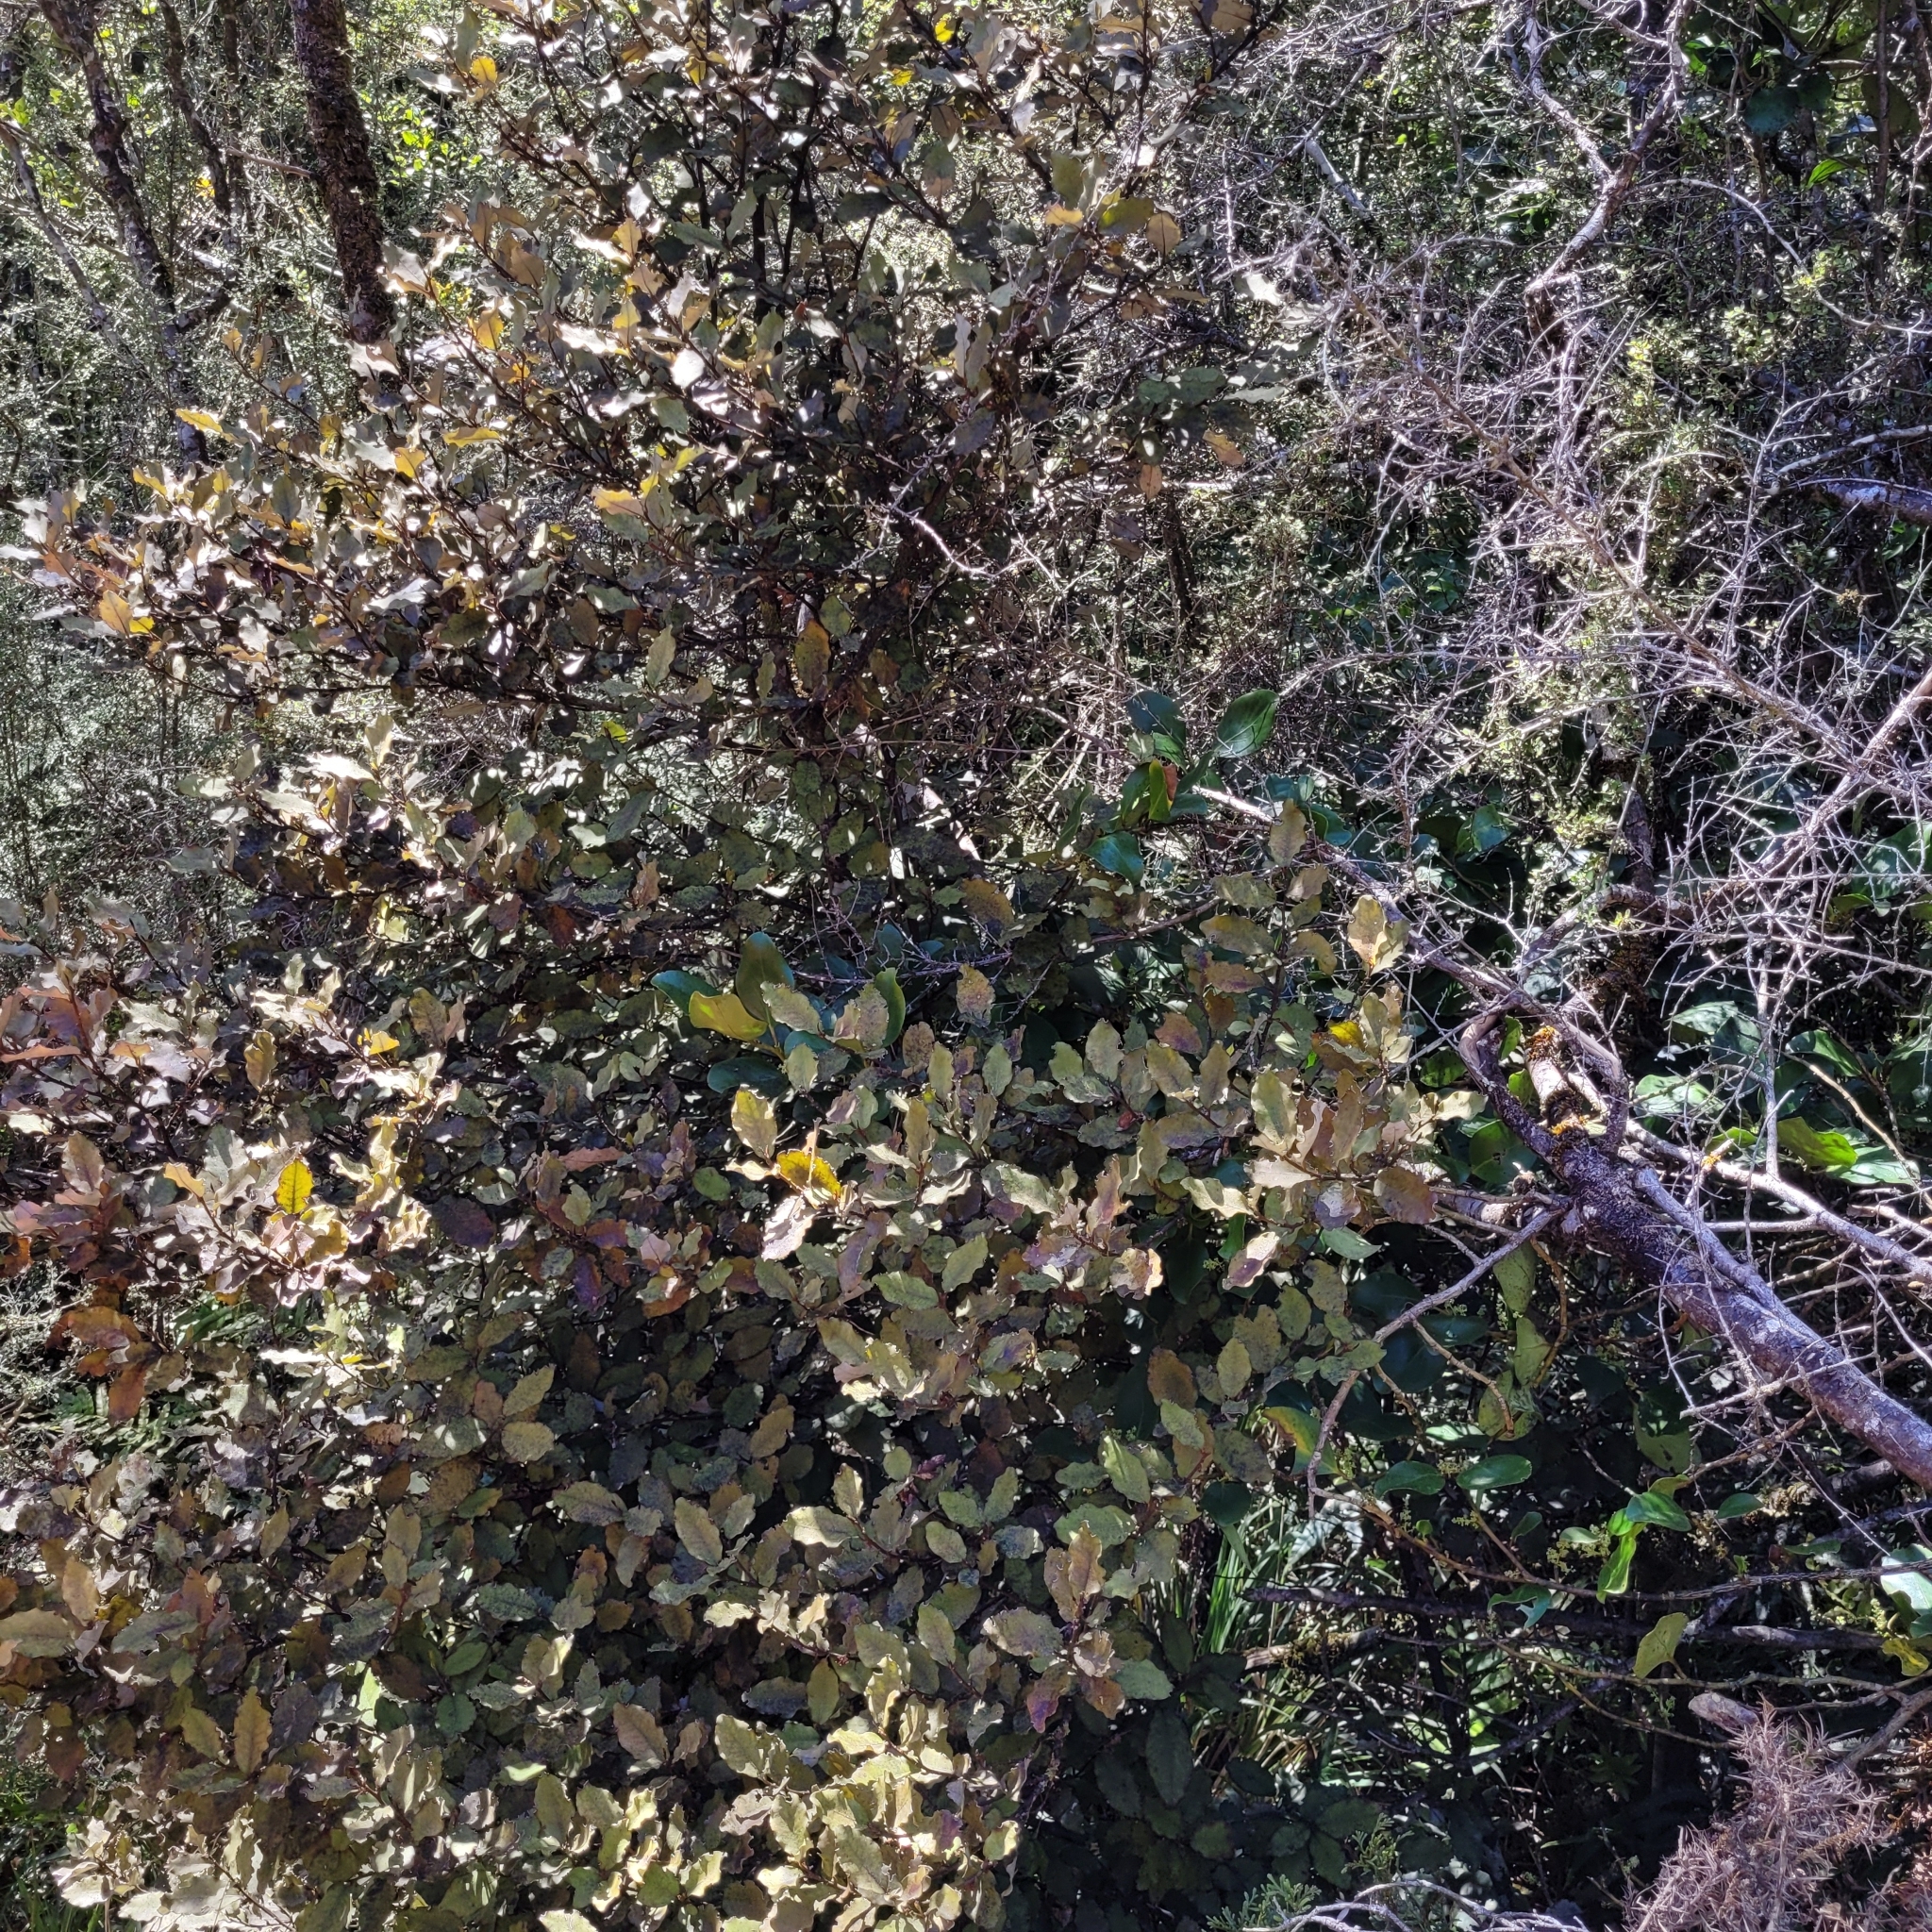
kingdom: Plantae
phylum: Tracheophyta
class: Magnoliopsida
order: Canellales
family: Winteraceae
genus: Pseudowintera
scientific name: Pseudowintera colorata
